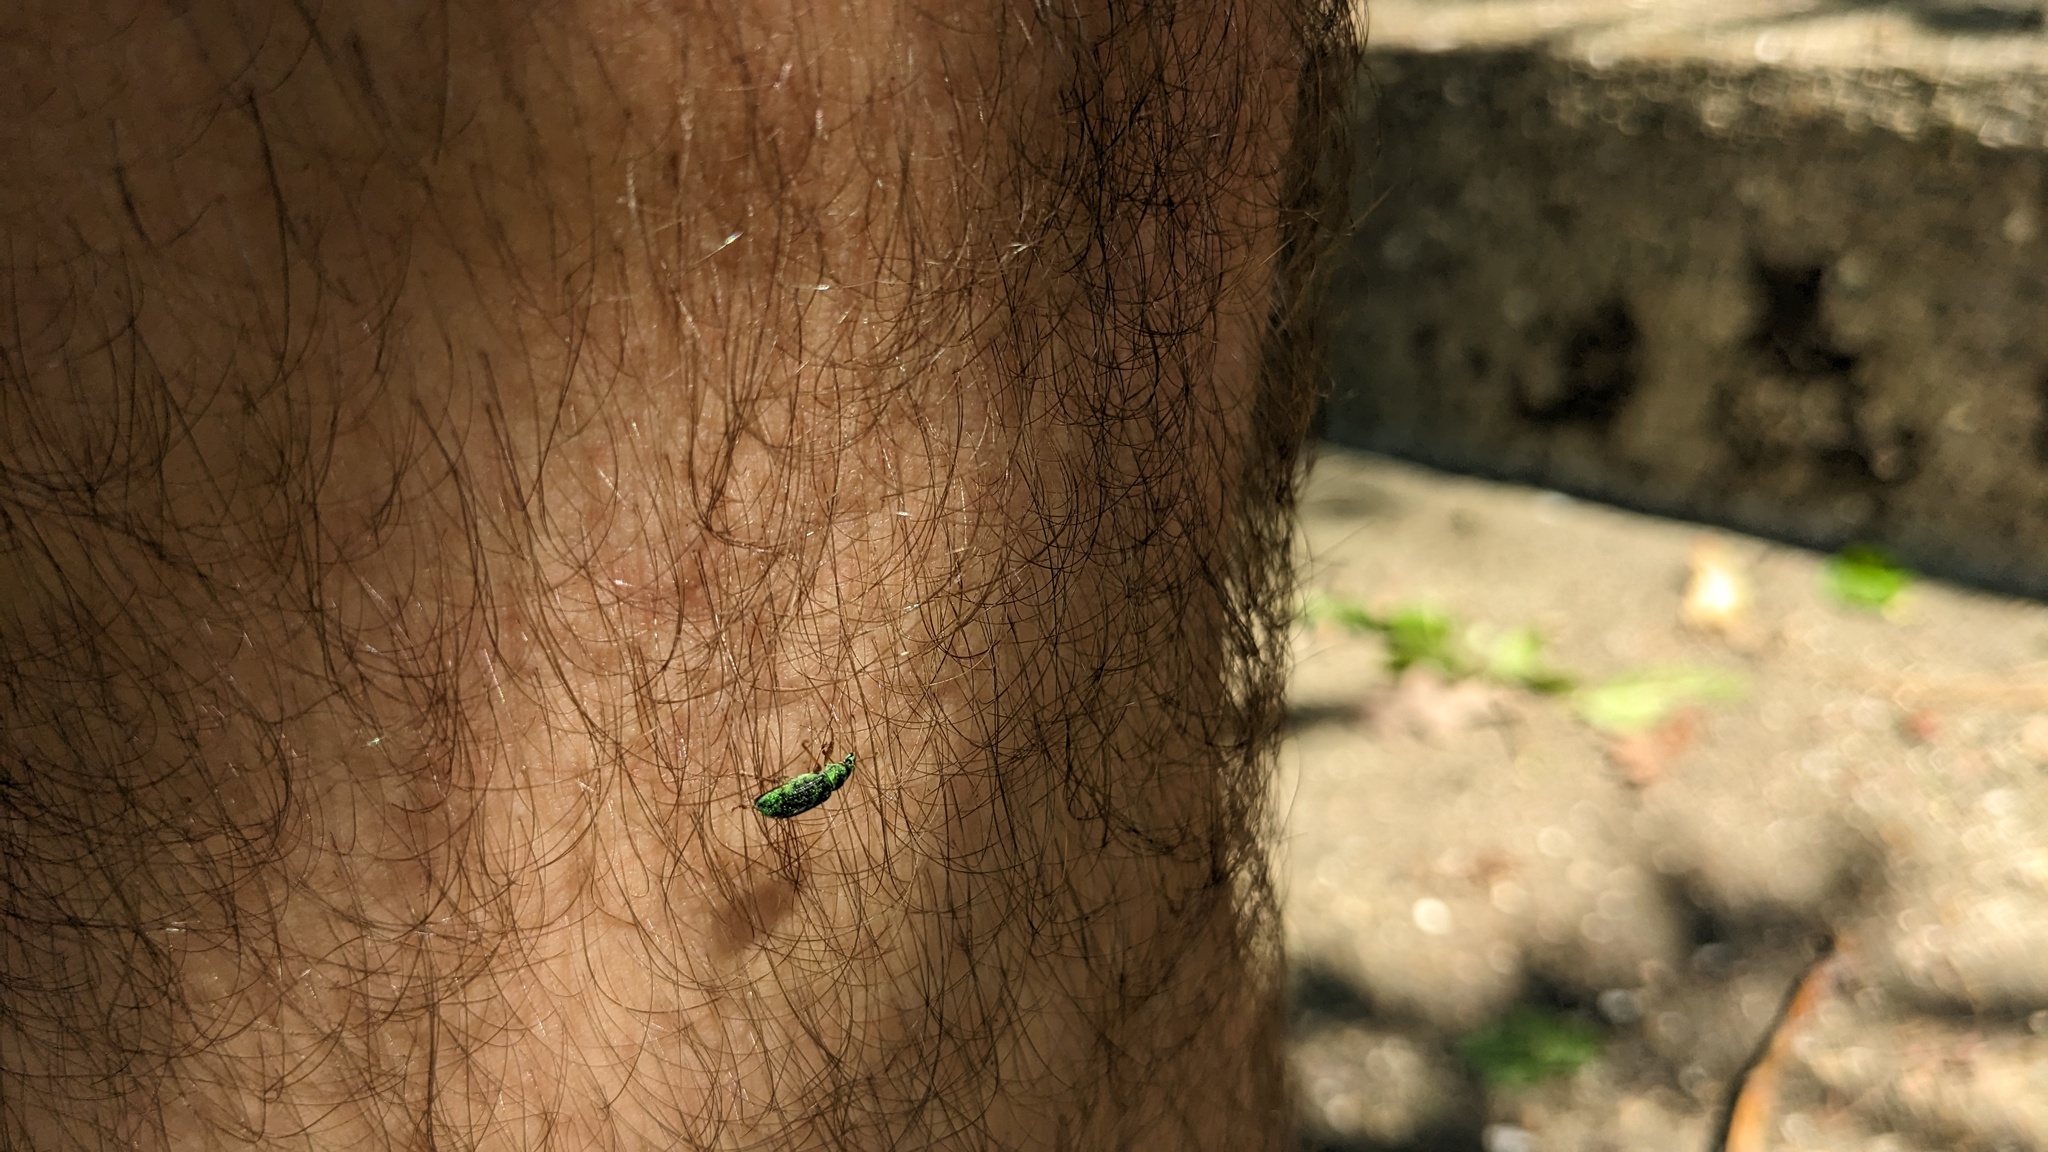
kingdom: Animalia
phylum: Arthropoda
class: Insecta
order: Coleoptera
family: Curculionidae
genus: Polydrusus
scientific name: Polydrusus formosus
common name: Weevil
